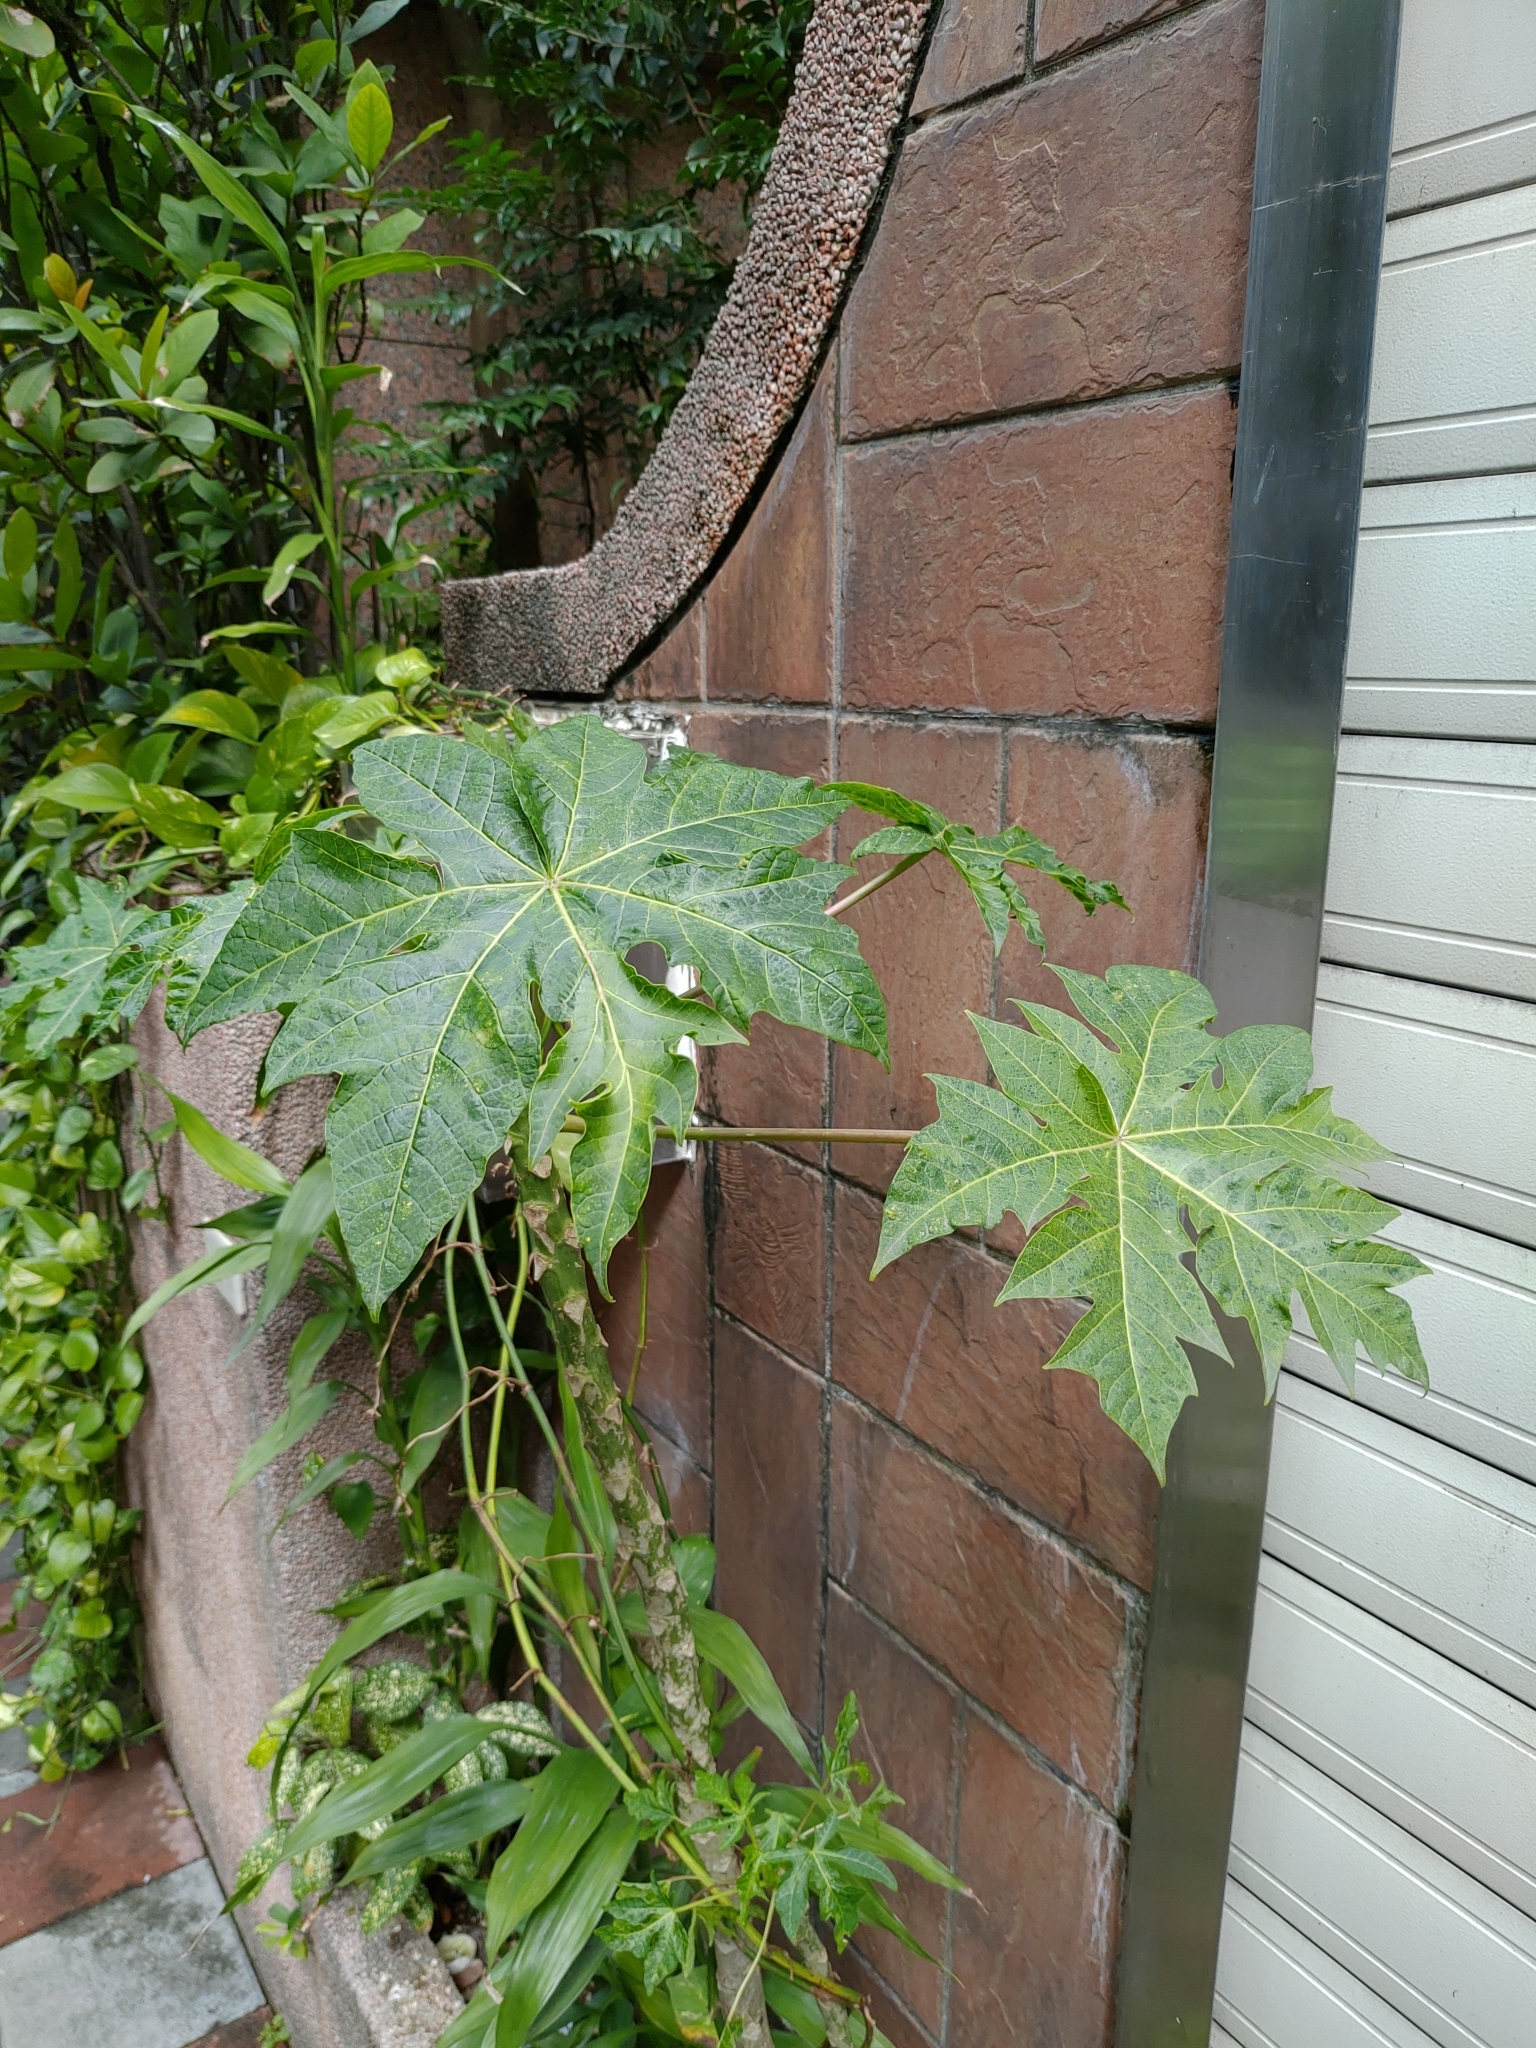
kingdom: Plantae
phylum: Tracheophyta
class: Magnoliopsida
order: Brassicales
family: Caricaceae
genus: Carica
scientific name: Carica papaya
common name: Papaya
